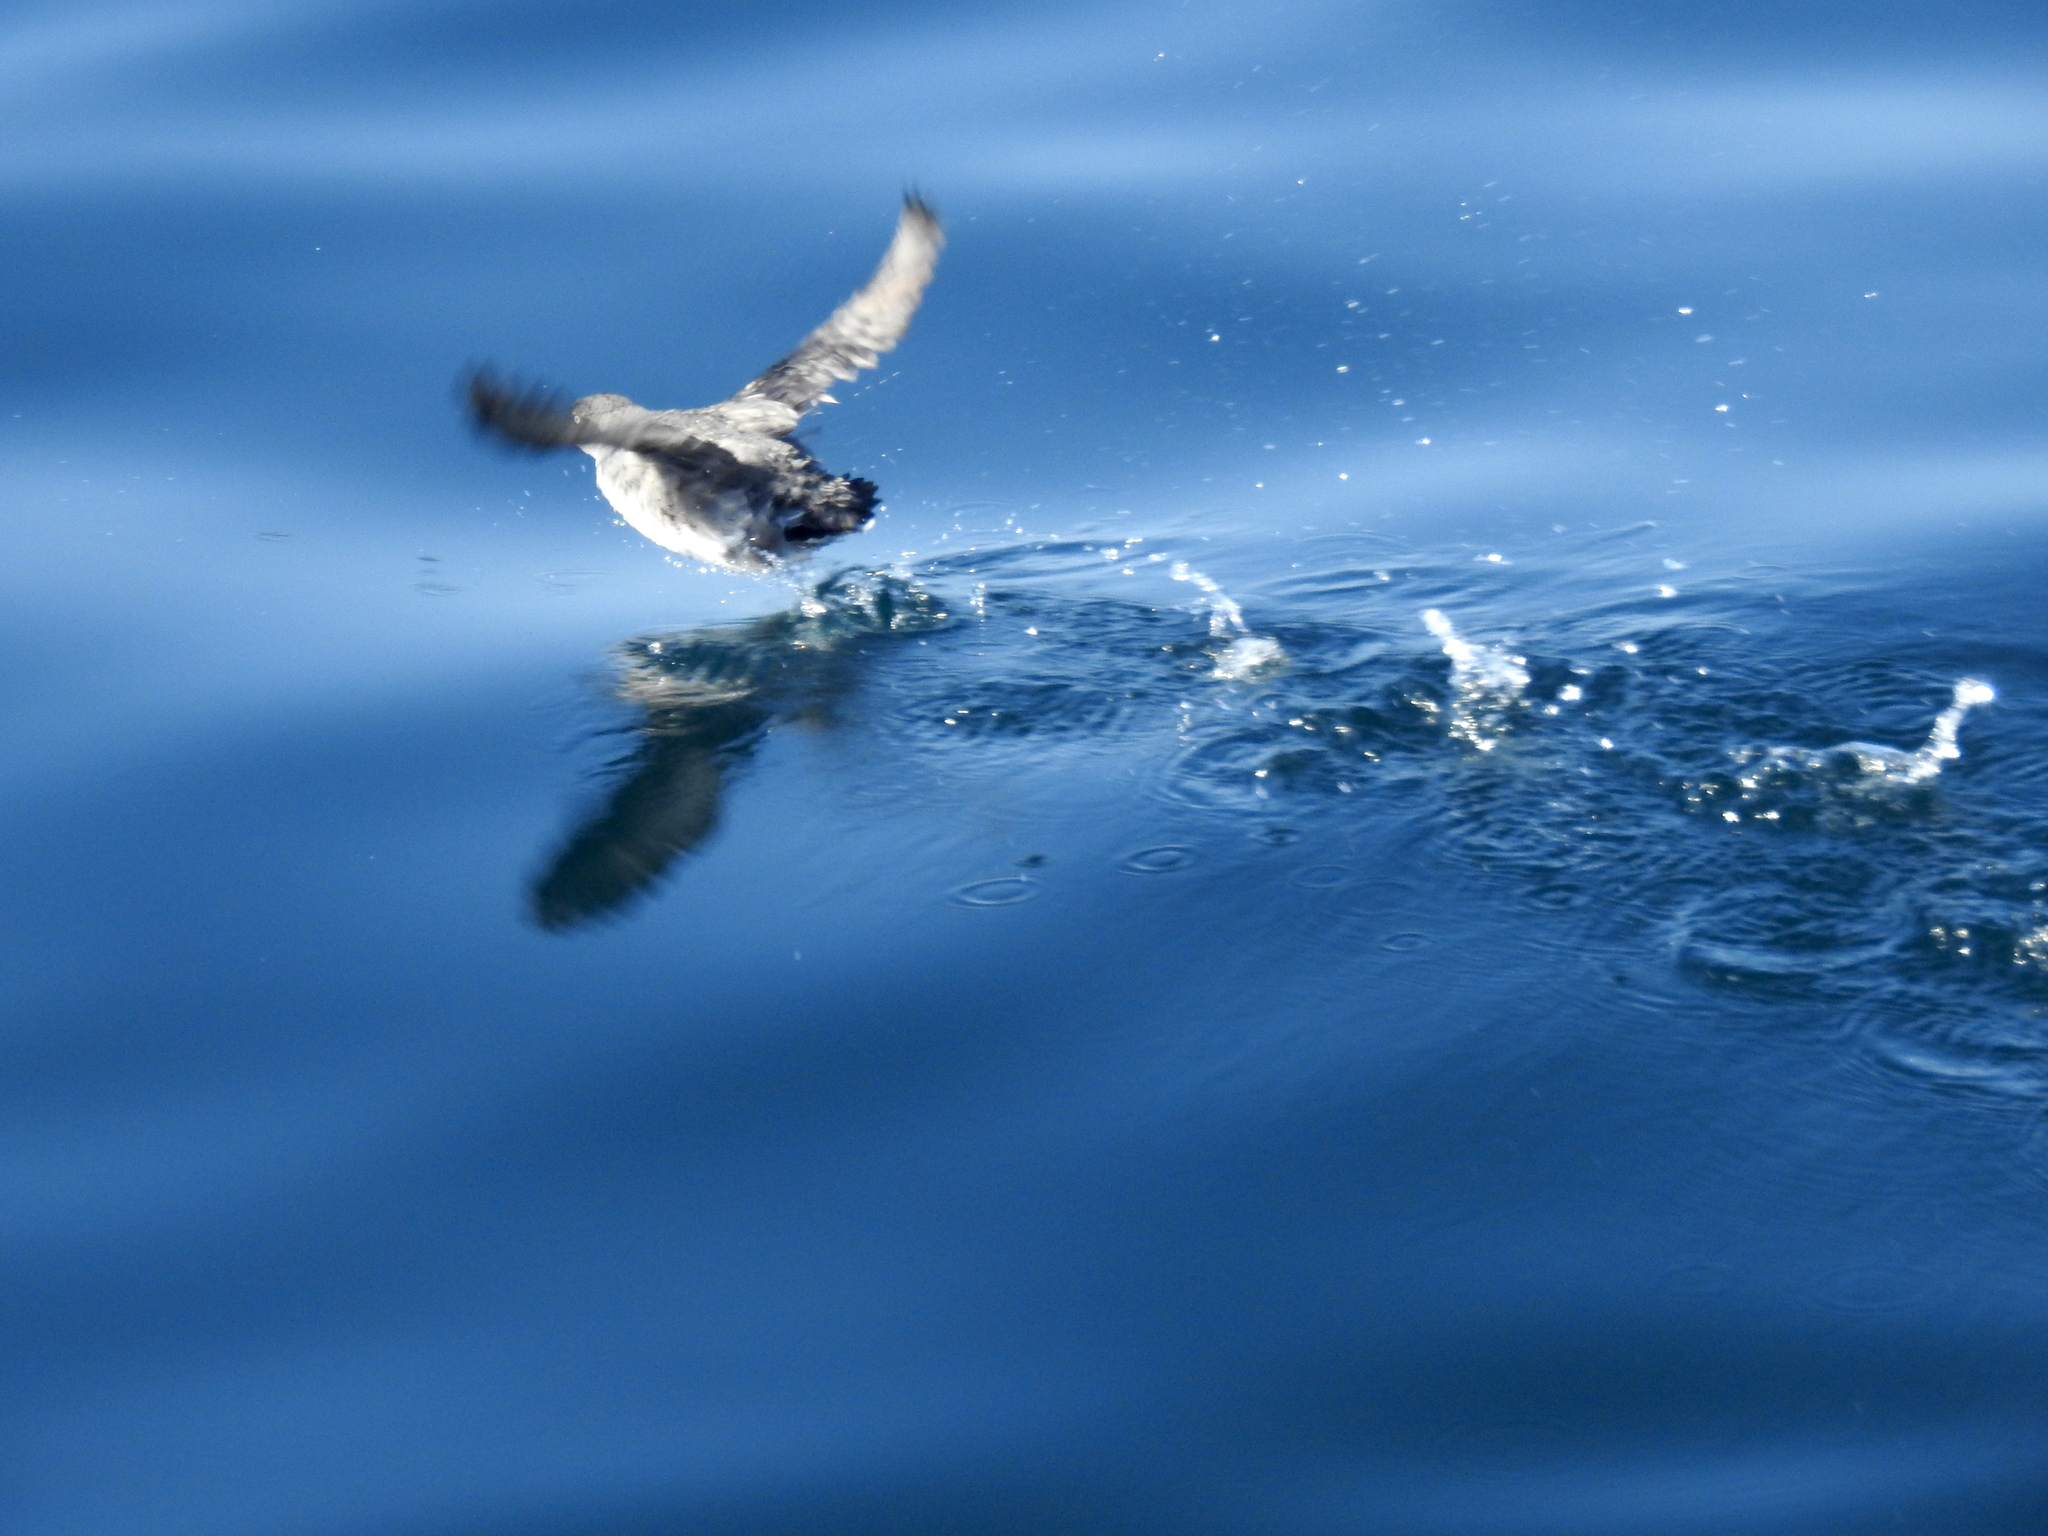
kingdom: Animalia
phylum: Chordata
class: Aves
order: Charadriiformes
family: Alcidae
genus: Ptychoramphus
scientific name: Ptychoramphus aleuticus
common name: Cassin's auklet
